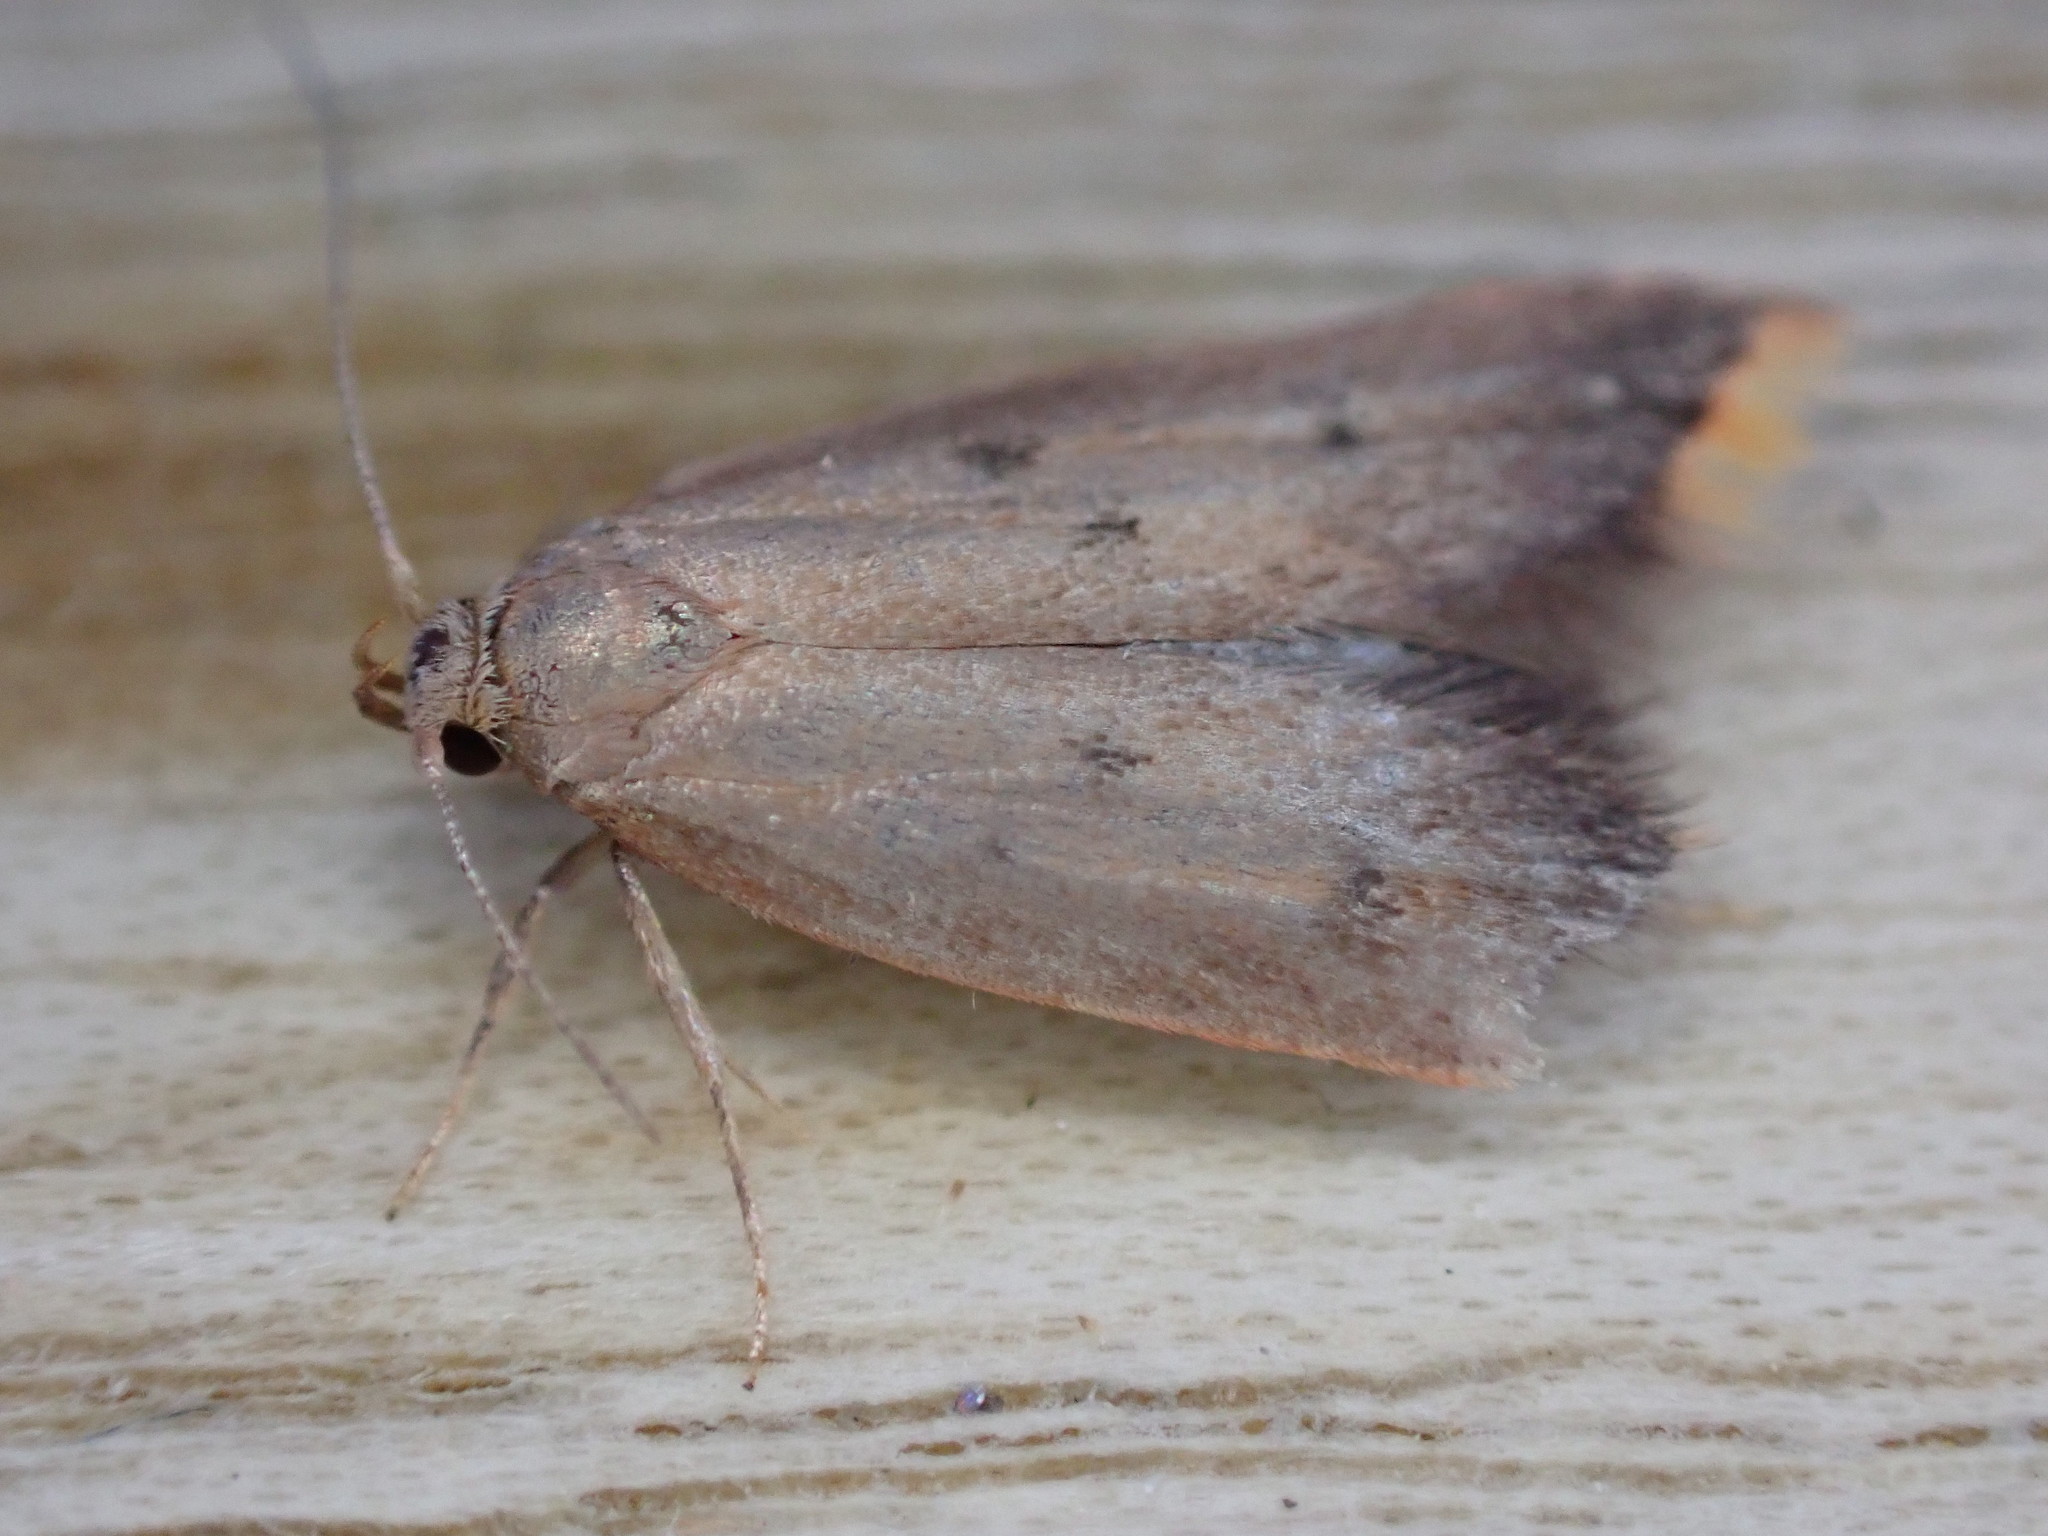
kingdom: Animalia
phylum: Arthropoda
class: Insecta
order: Lepidoptera
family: Oecophoridae
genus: Tachystola
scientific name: Tachystola acroxantha
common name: Ruddy streak
